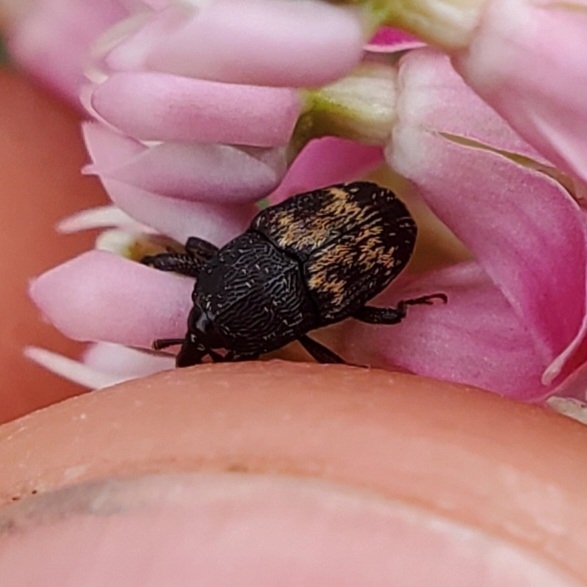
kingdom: Animalia
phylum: Arthropoda
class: Insecta
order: Coleoptera
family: Curculionidae
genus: Glyptobaris
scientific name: Glyptobaris lecontei
